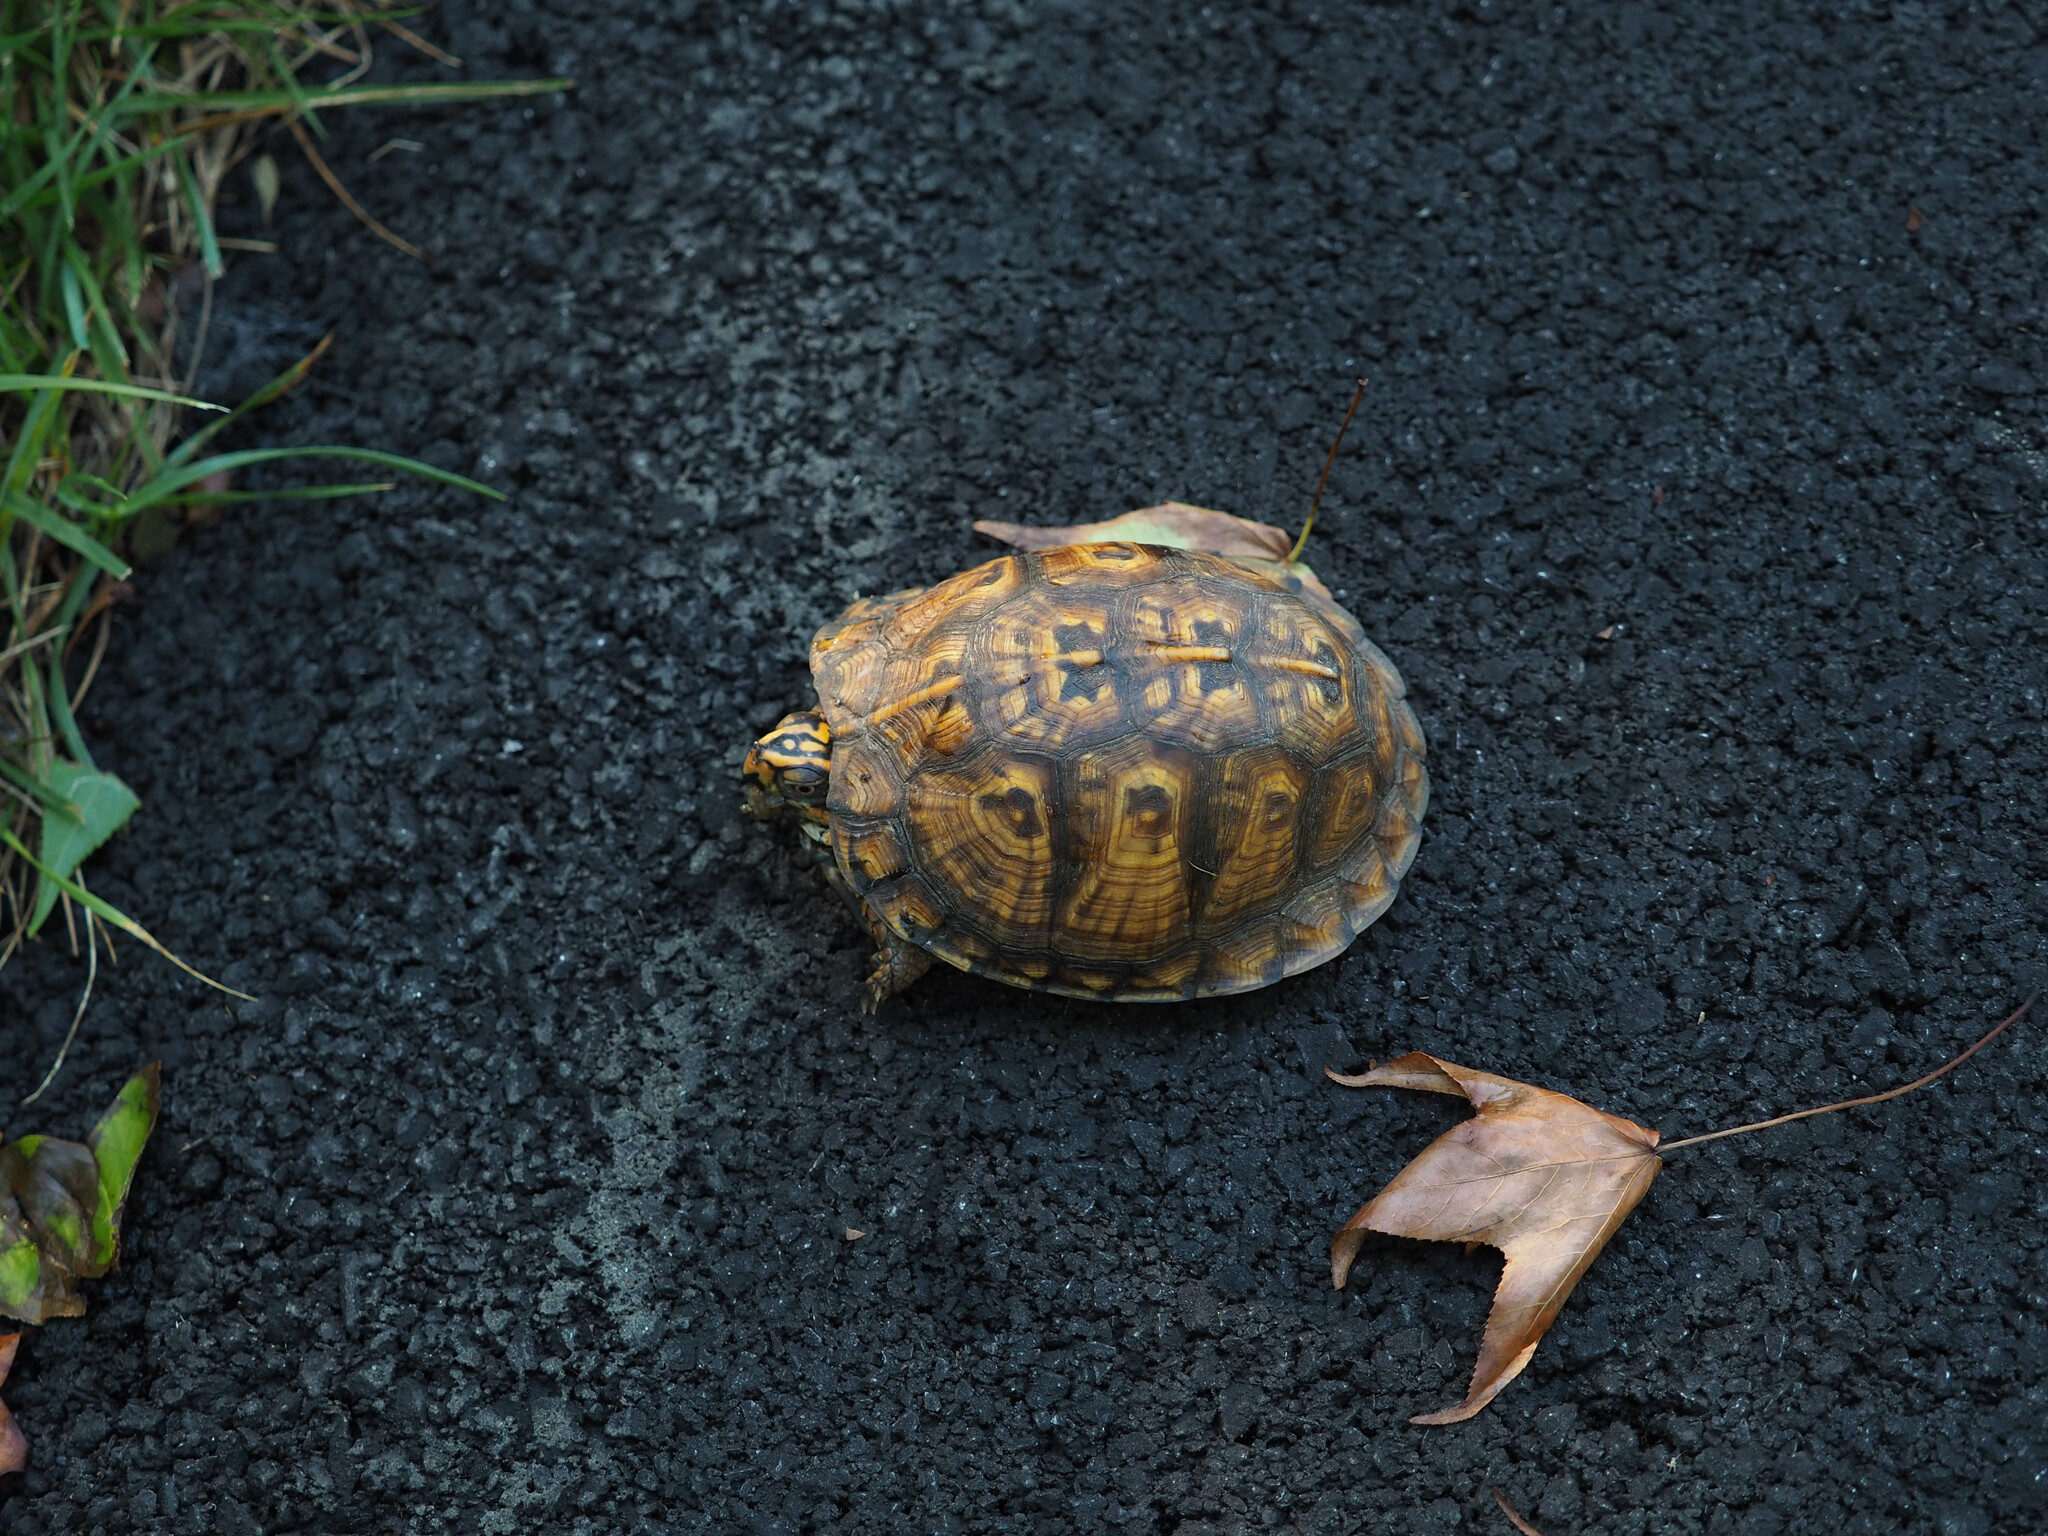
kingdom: Animalia
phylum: Chordata
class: Testudines
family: Emydidae
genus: Terrapene
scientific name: Terrapene carolina
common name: Common box turtle
